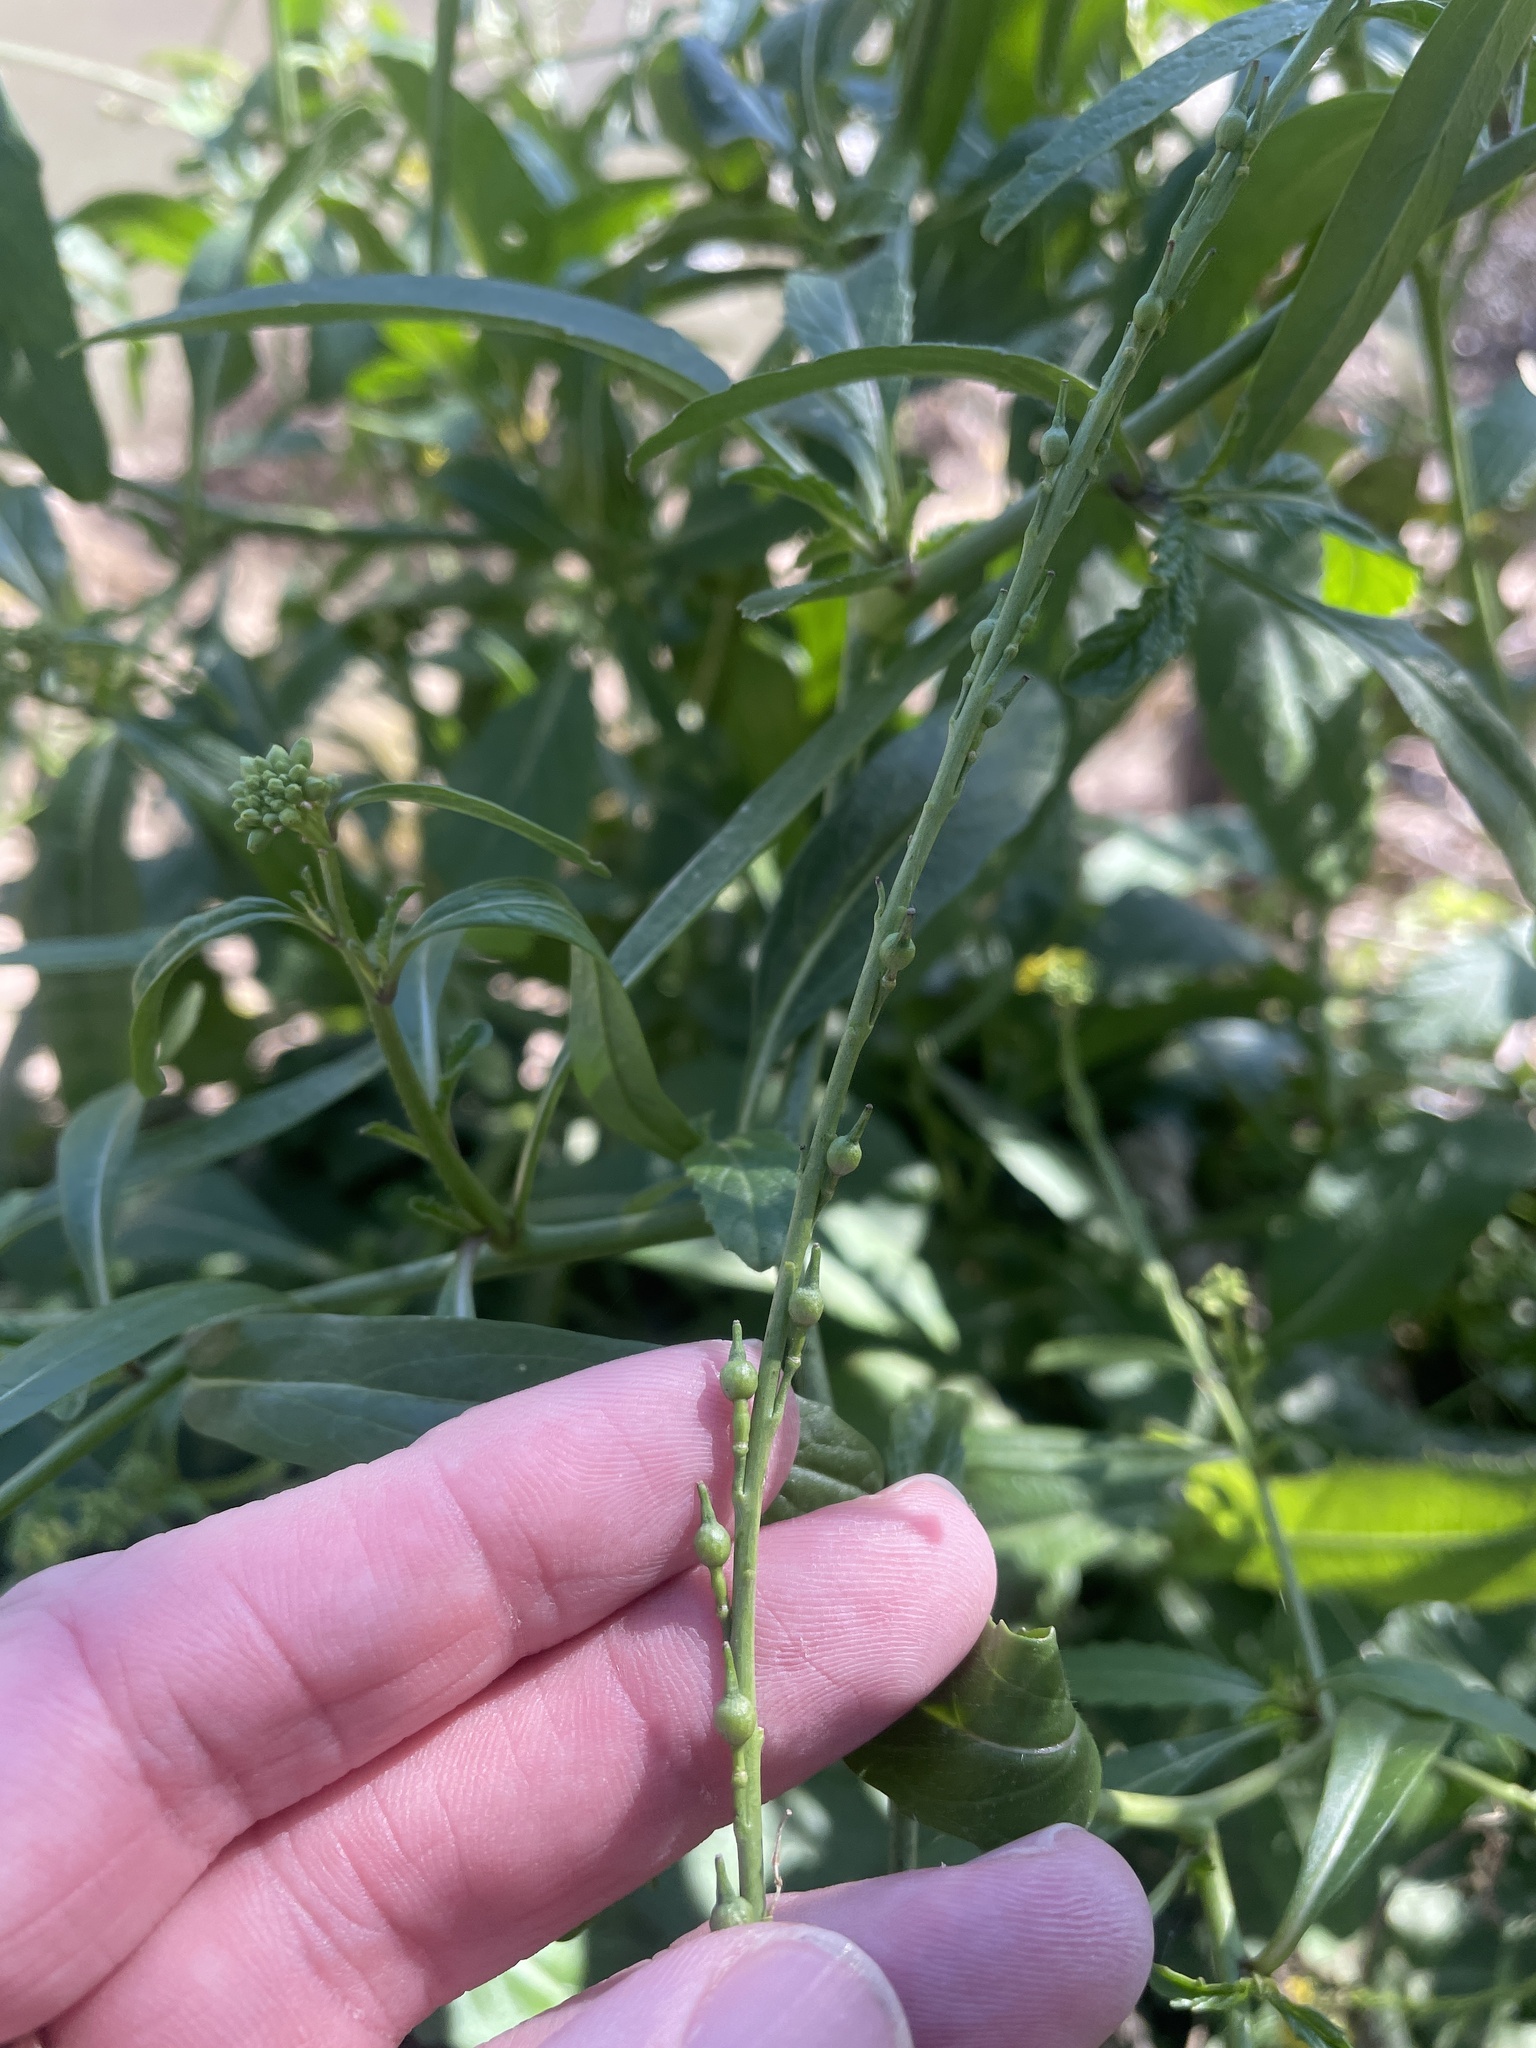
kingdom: Plantae
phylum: Tracheophyta
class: Magnoliopsida
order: Brassicales
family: Brassicaceae
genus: Rapistrum
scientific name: Rapistrum rugosum
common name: Annual bastardcabbage
